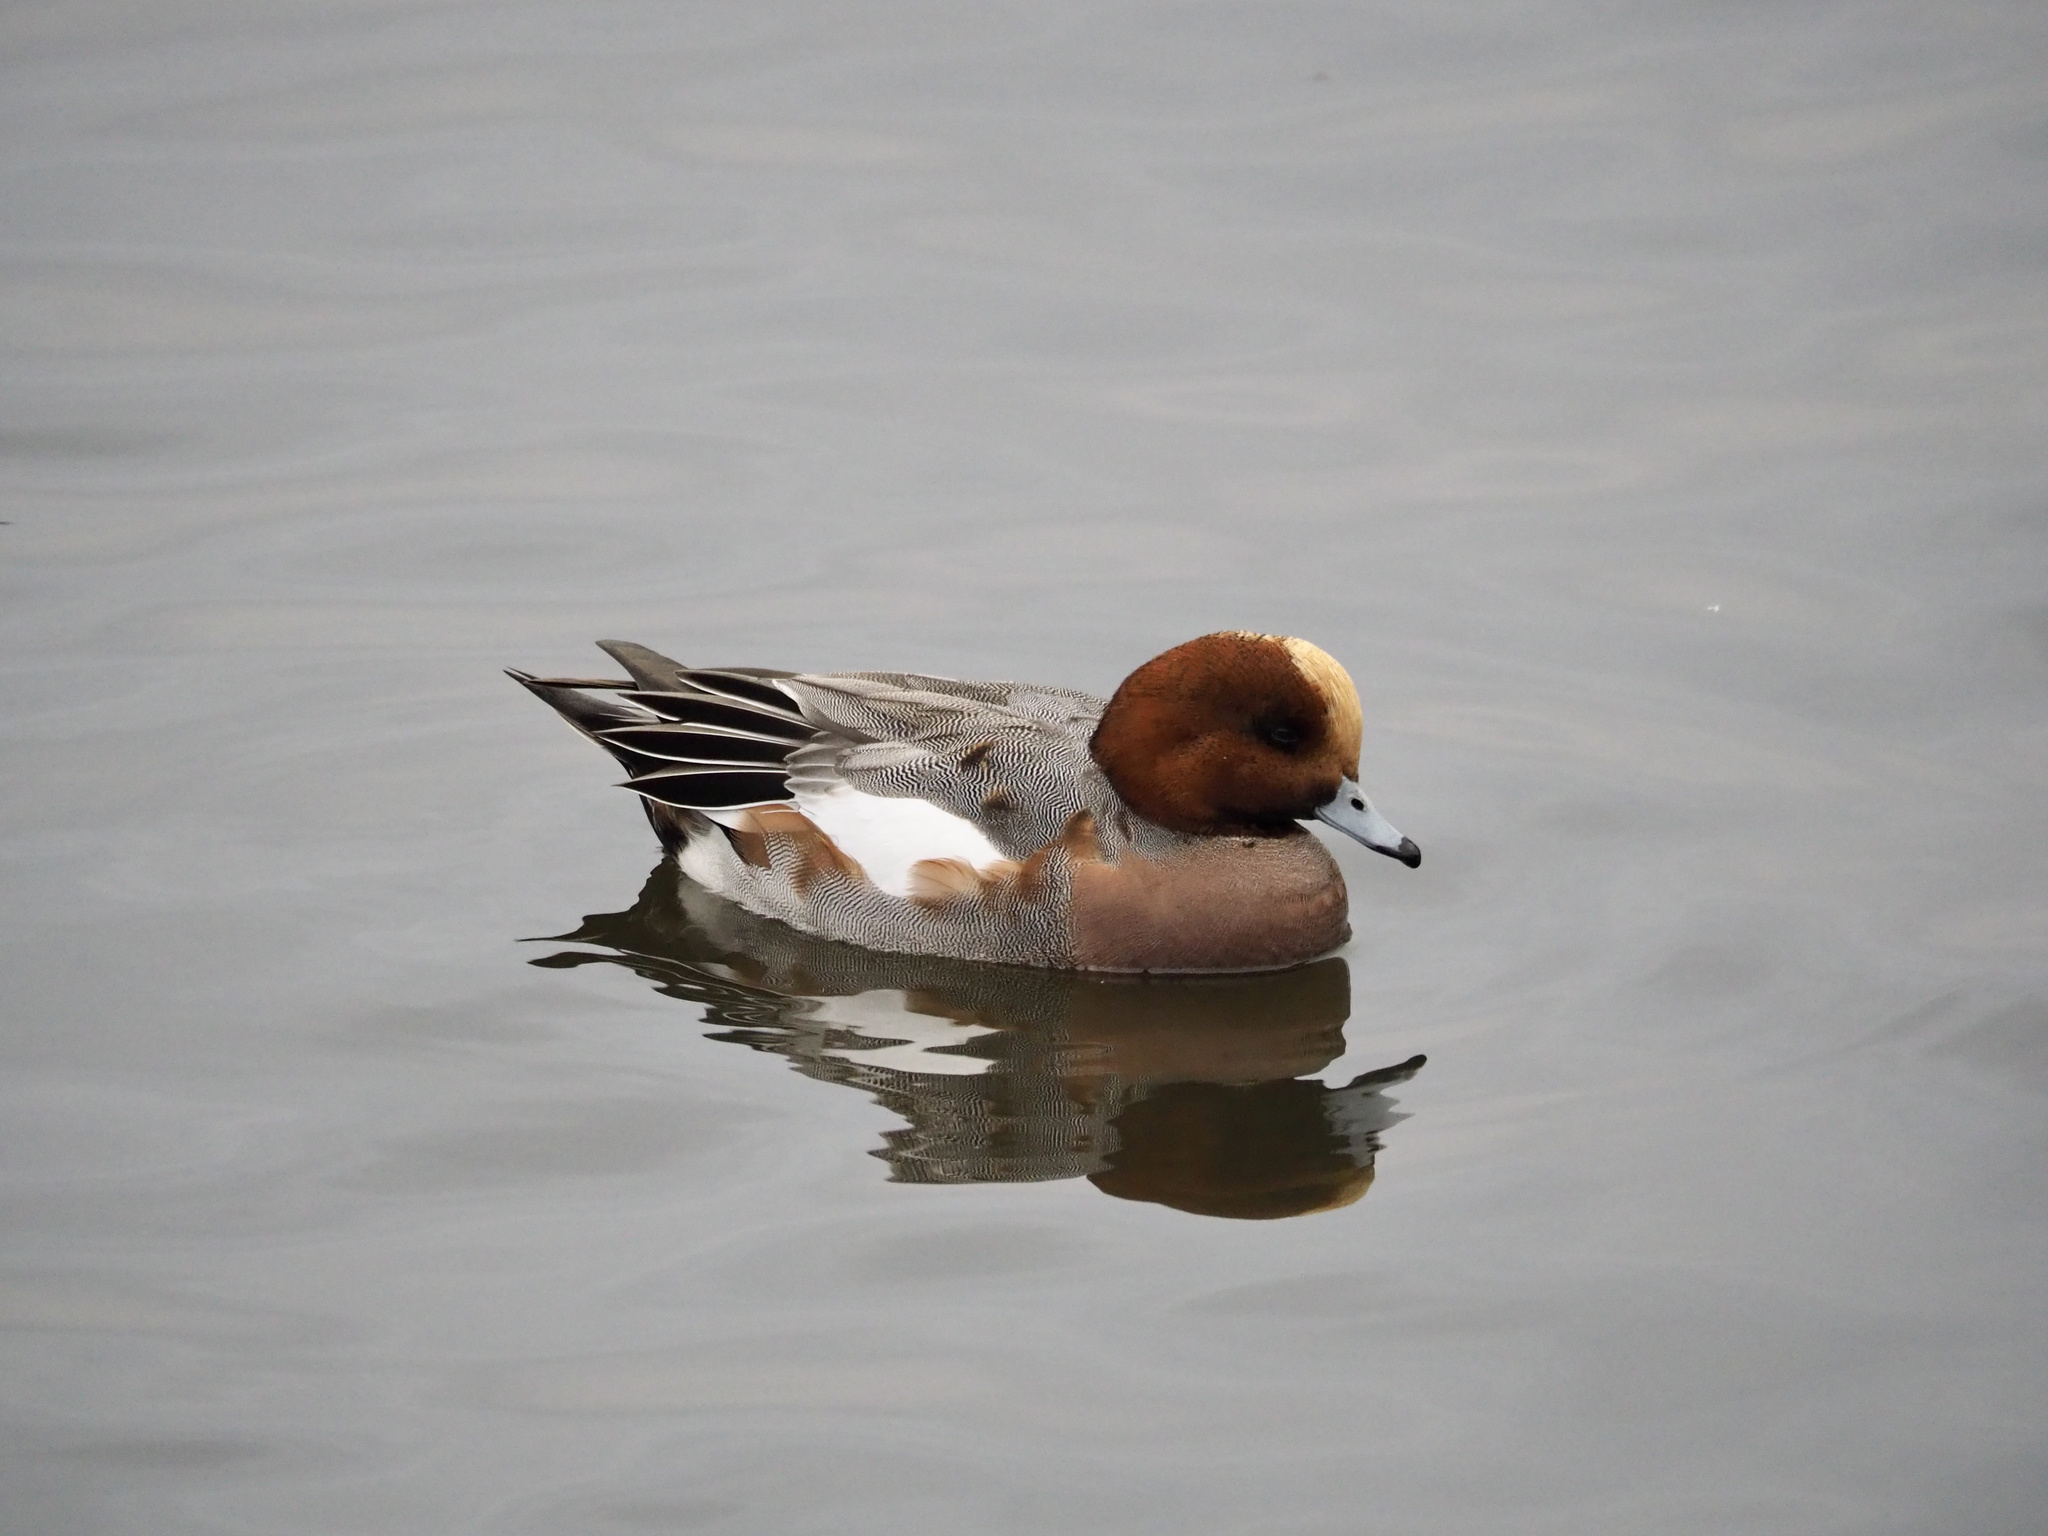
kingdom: Animalia
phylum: Chordata
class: Aves
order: Anseriformes
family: Anatidae
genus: Mareca
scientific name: Mareca penelope
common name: Eurasian wigeon
